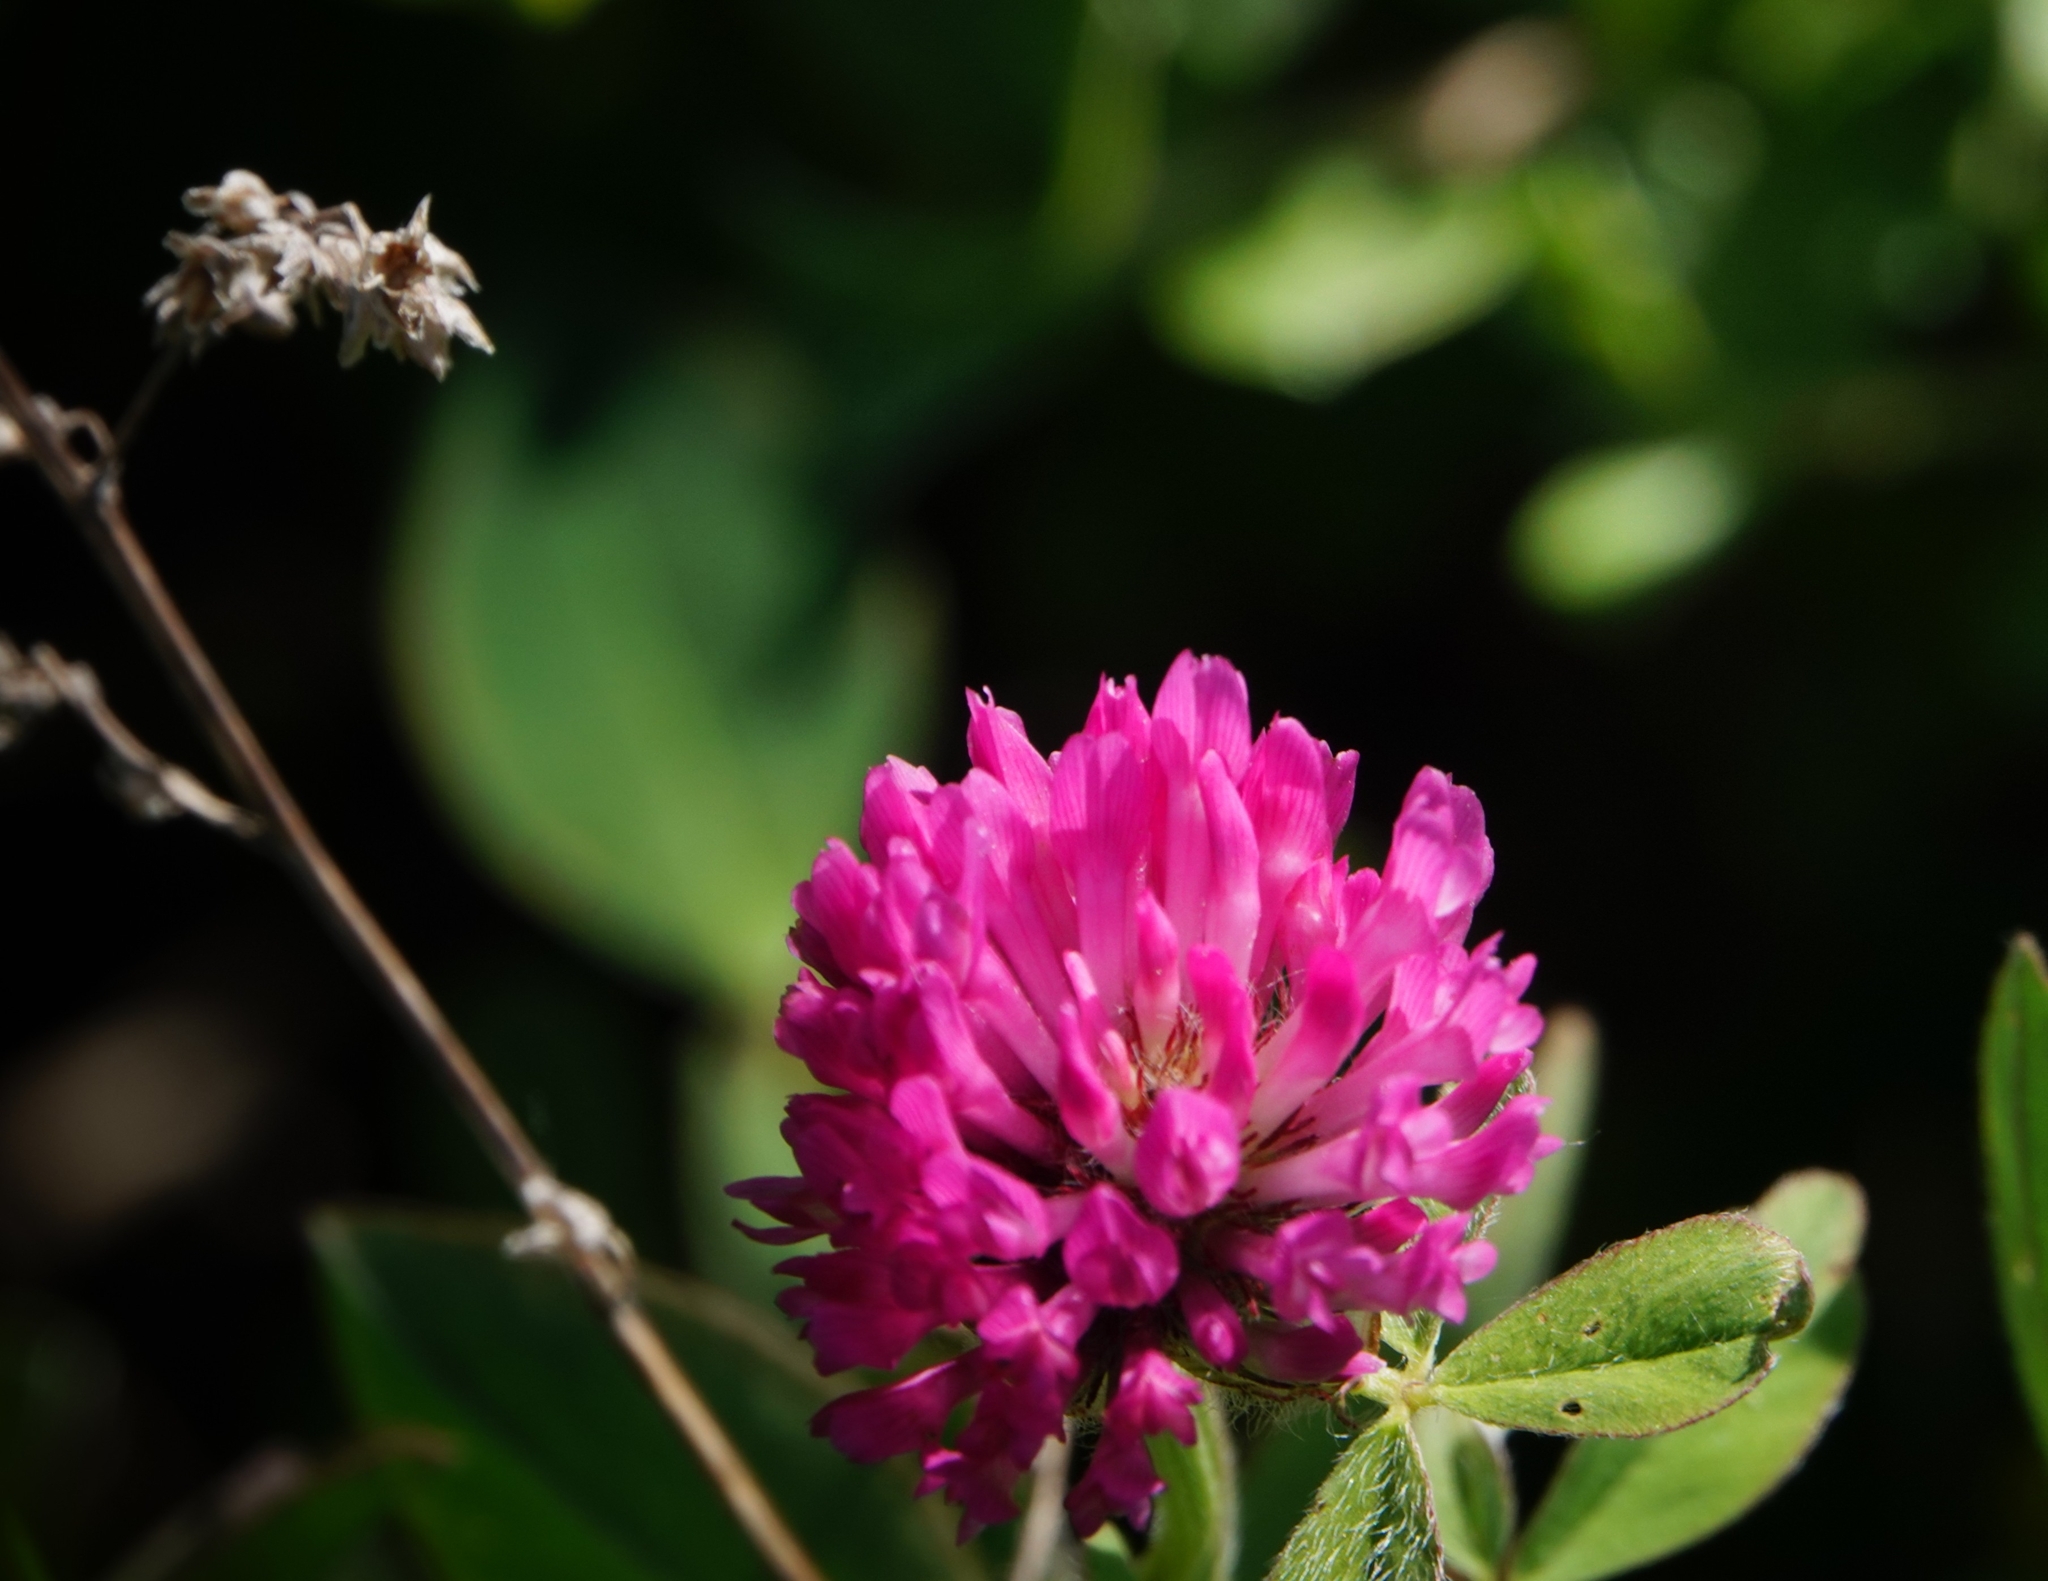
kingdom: Plantae
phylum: Tracheophyta
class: Magnoliopsida
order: Fabales
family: Fabaceae
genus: Trifolium
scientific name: Trifolium pratense
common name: Red clover
